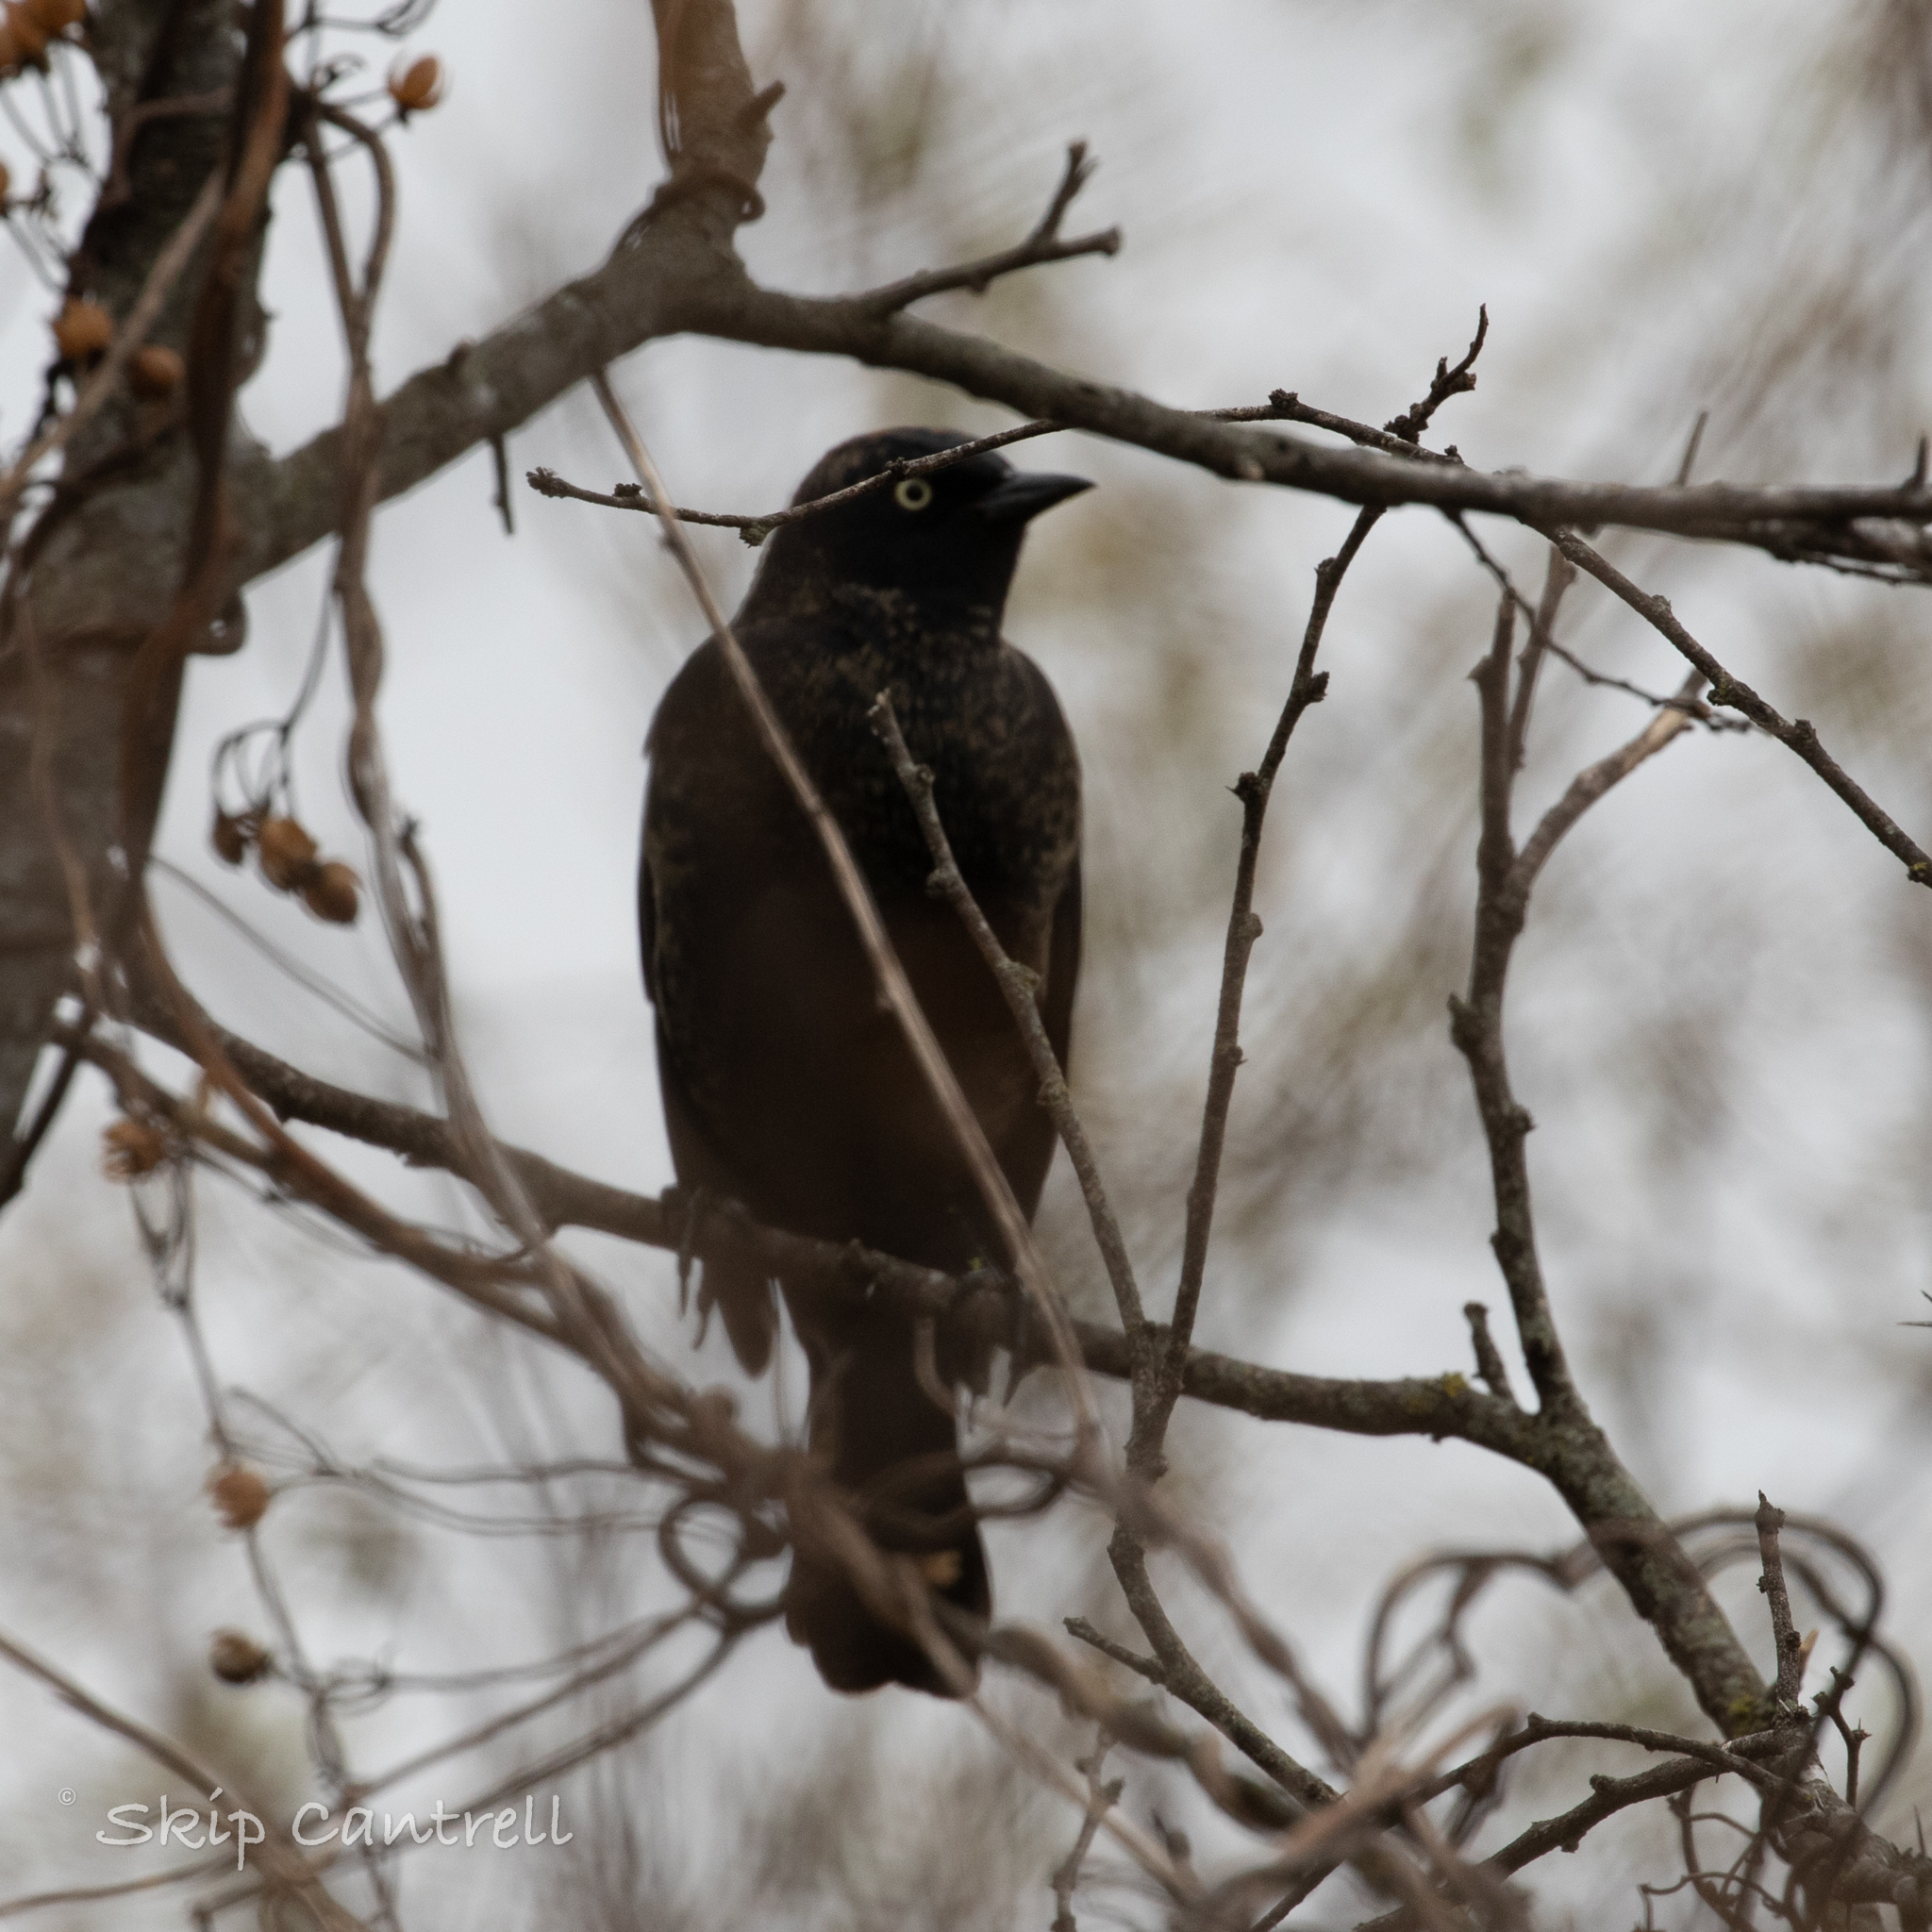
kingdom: Animalia
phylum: Chordata
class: Aves
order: Passeriformes
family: Icteridae
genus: Euphagus
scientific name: Euphagus carolinus
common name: Rusty blackbird
